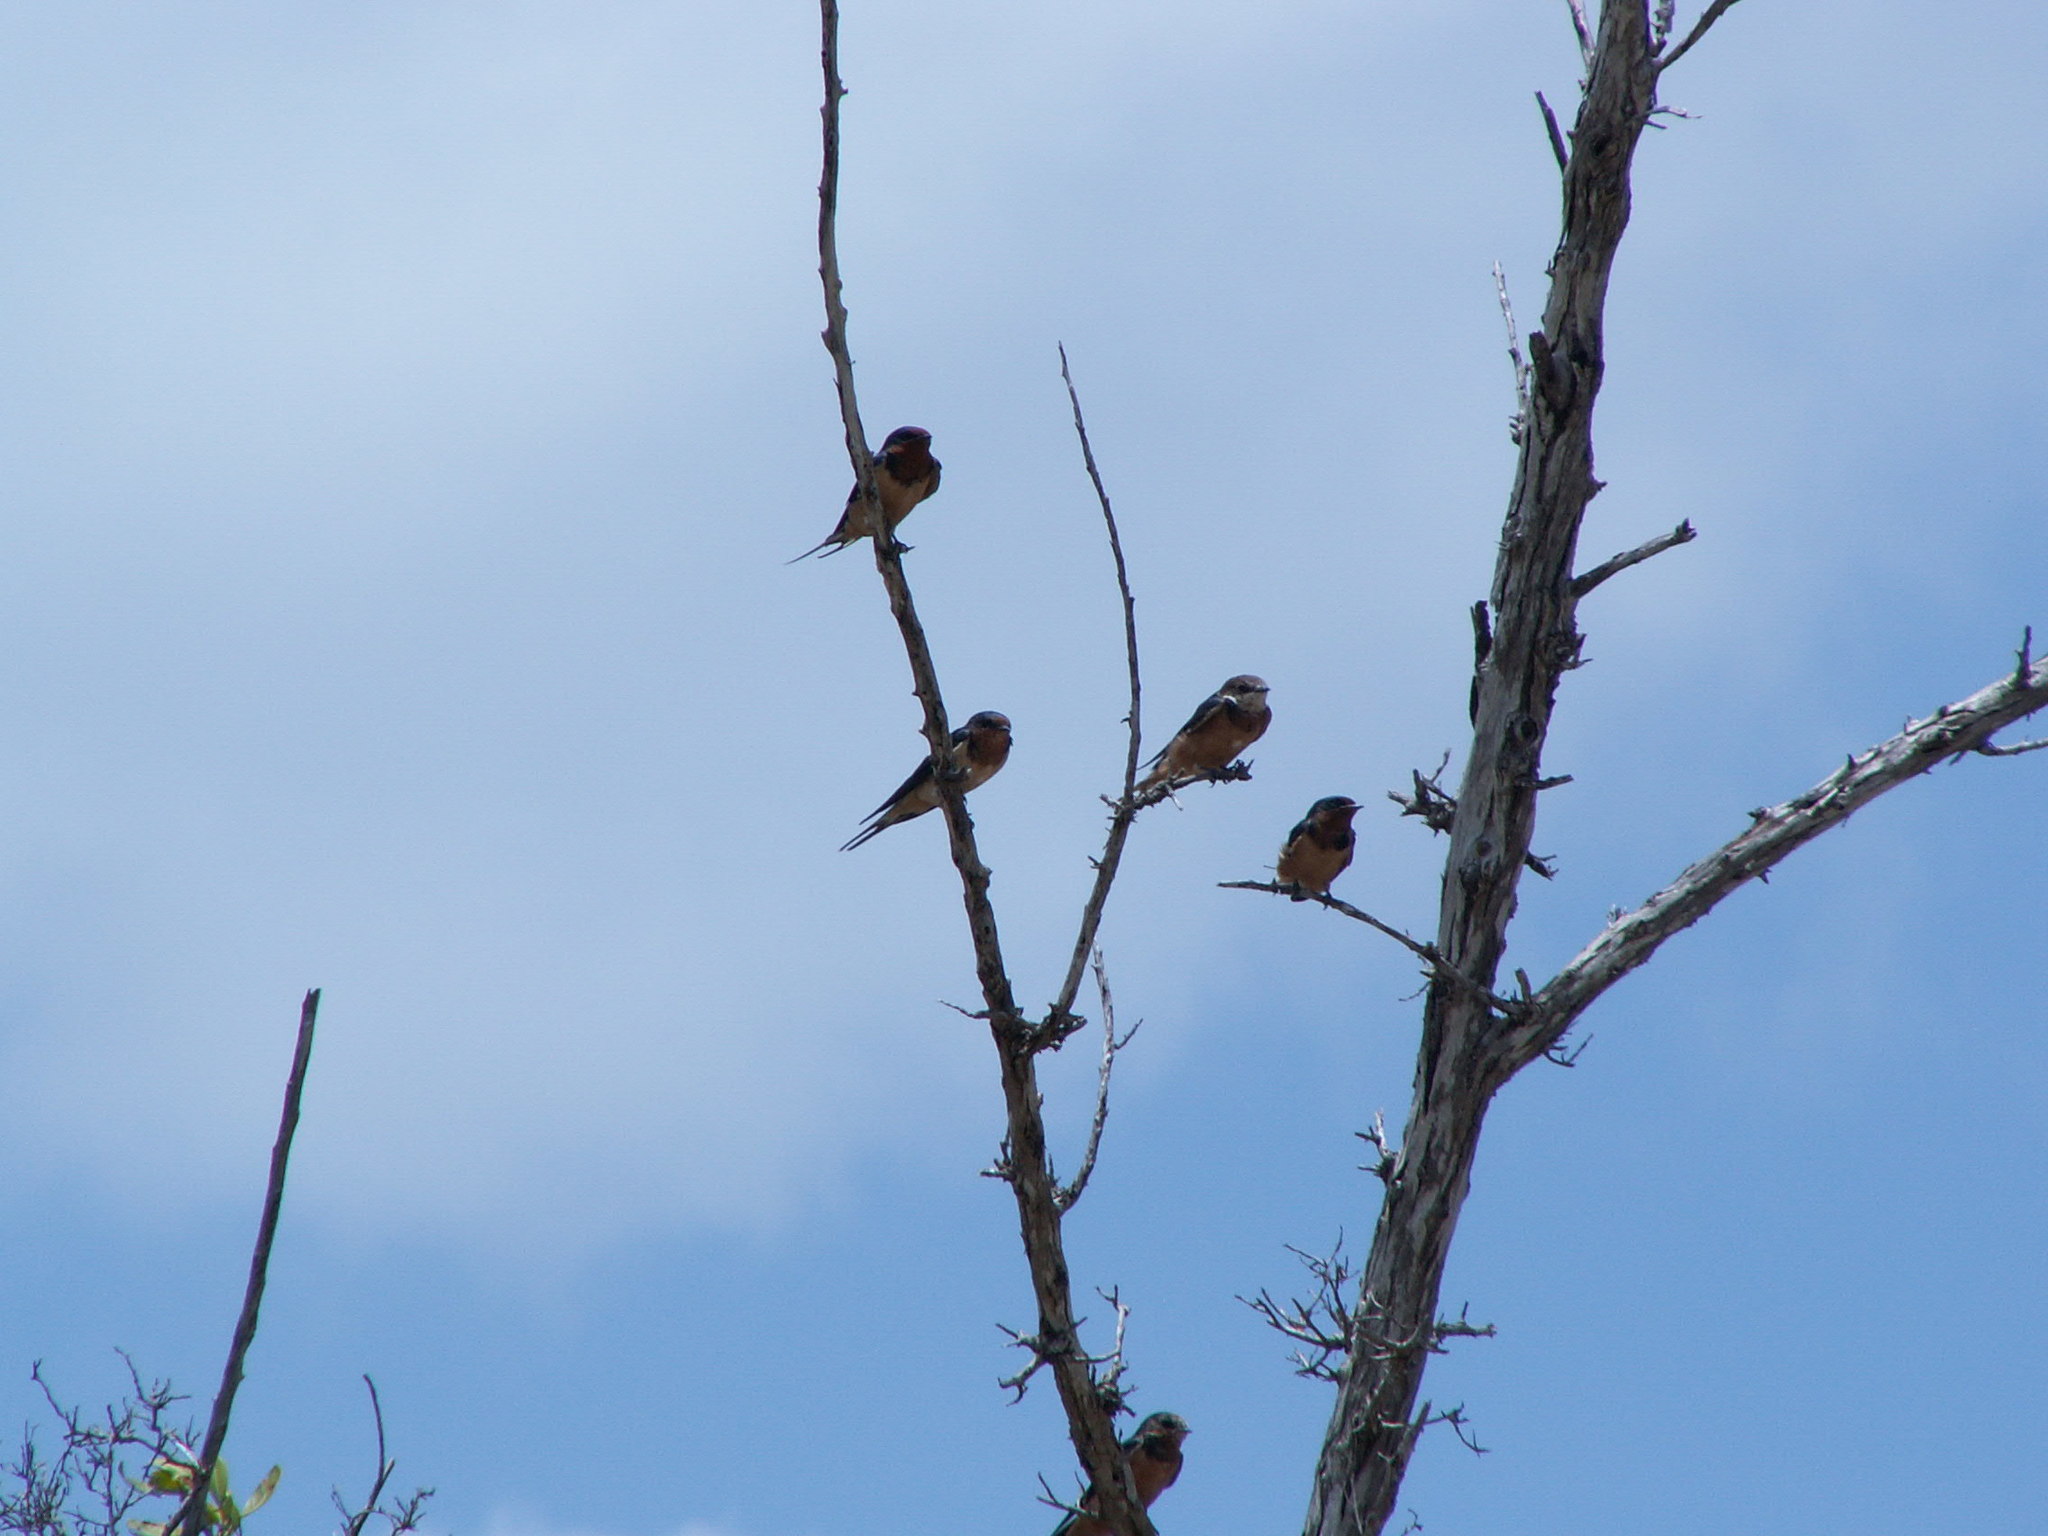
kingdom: Animalia
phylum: Chordata
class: Aves
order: Passeriformes
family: Hirundinidae
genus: Hirundo
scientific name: Hirundo rustica
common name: Barn swallow
